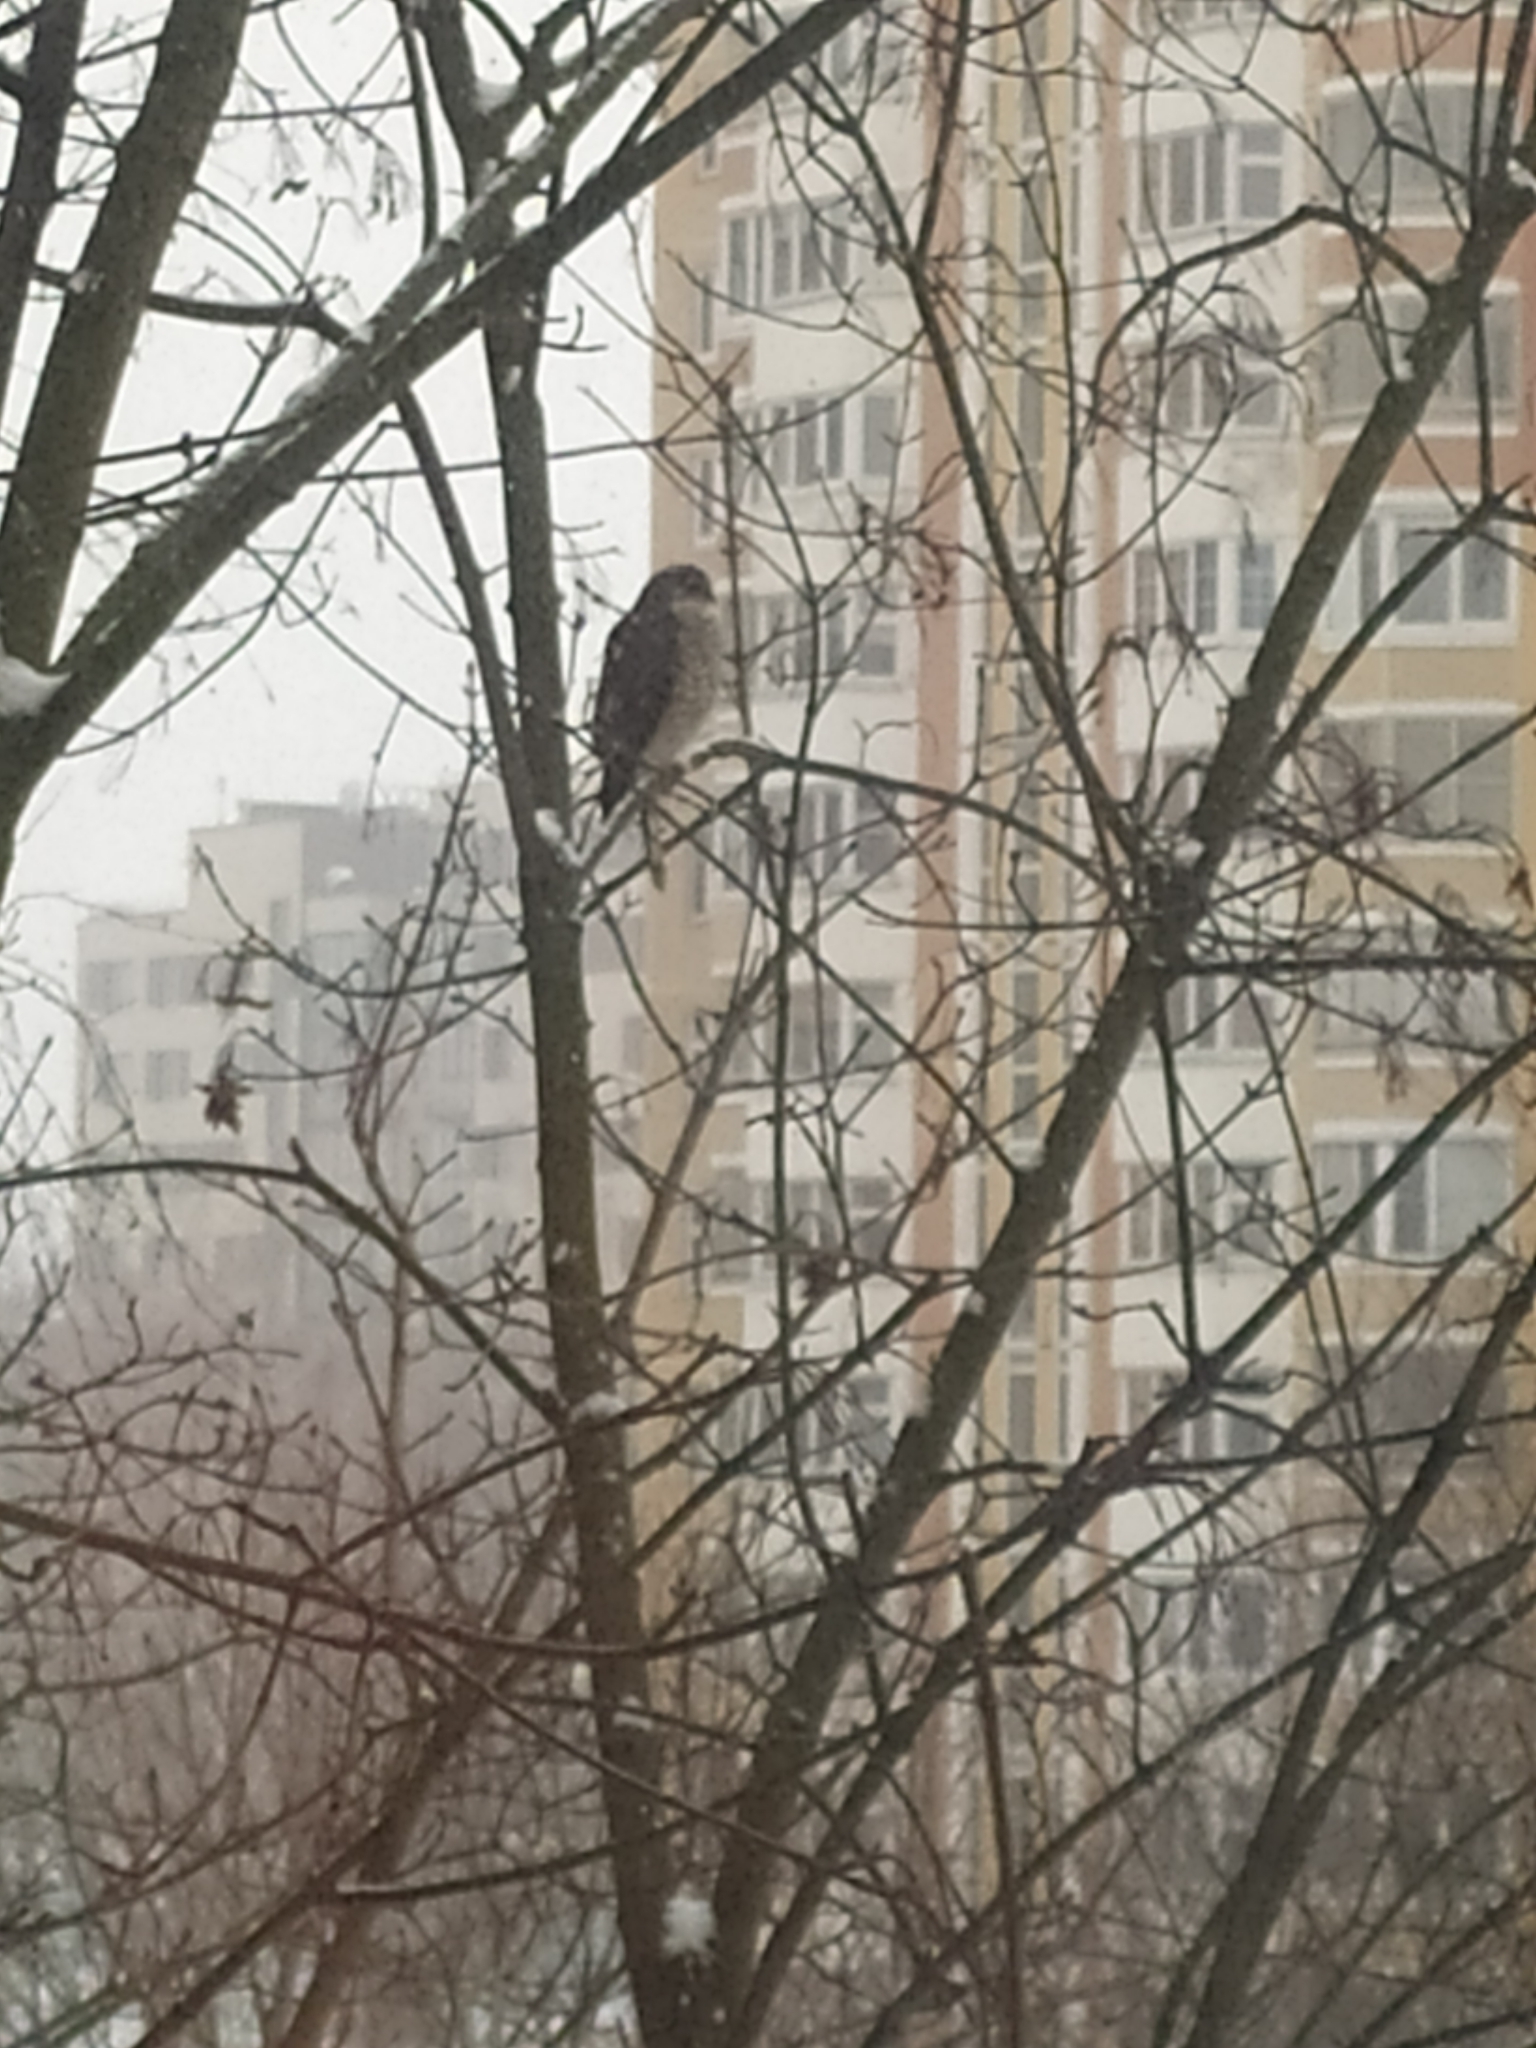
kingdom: Animalia
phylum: Chordata
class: Aves
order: Accipitriformes
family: Accipitridae
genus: Accipiter
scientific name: Accipiter nisus
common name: Eurasian sparrowhawk
